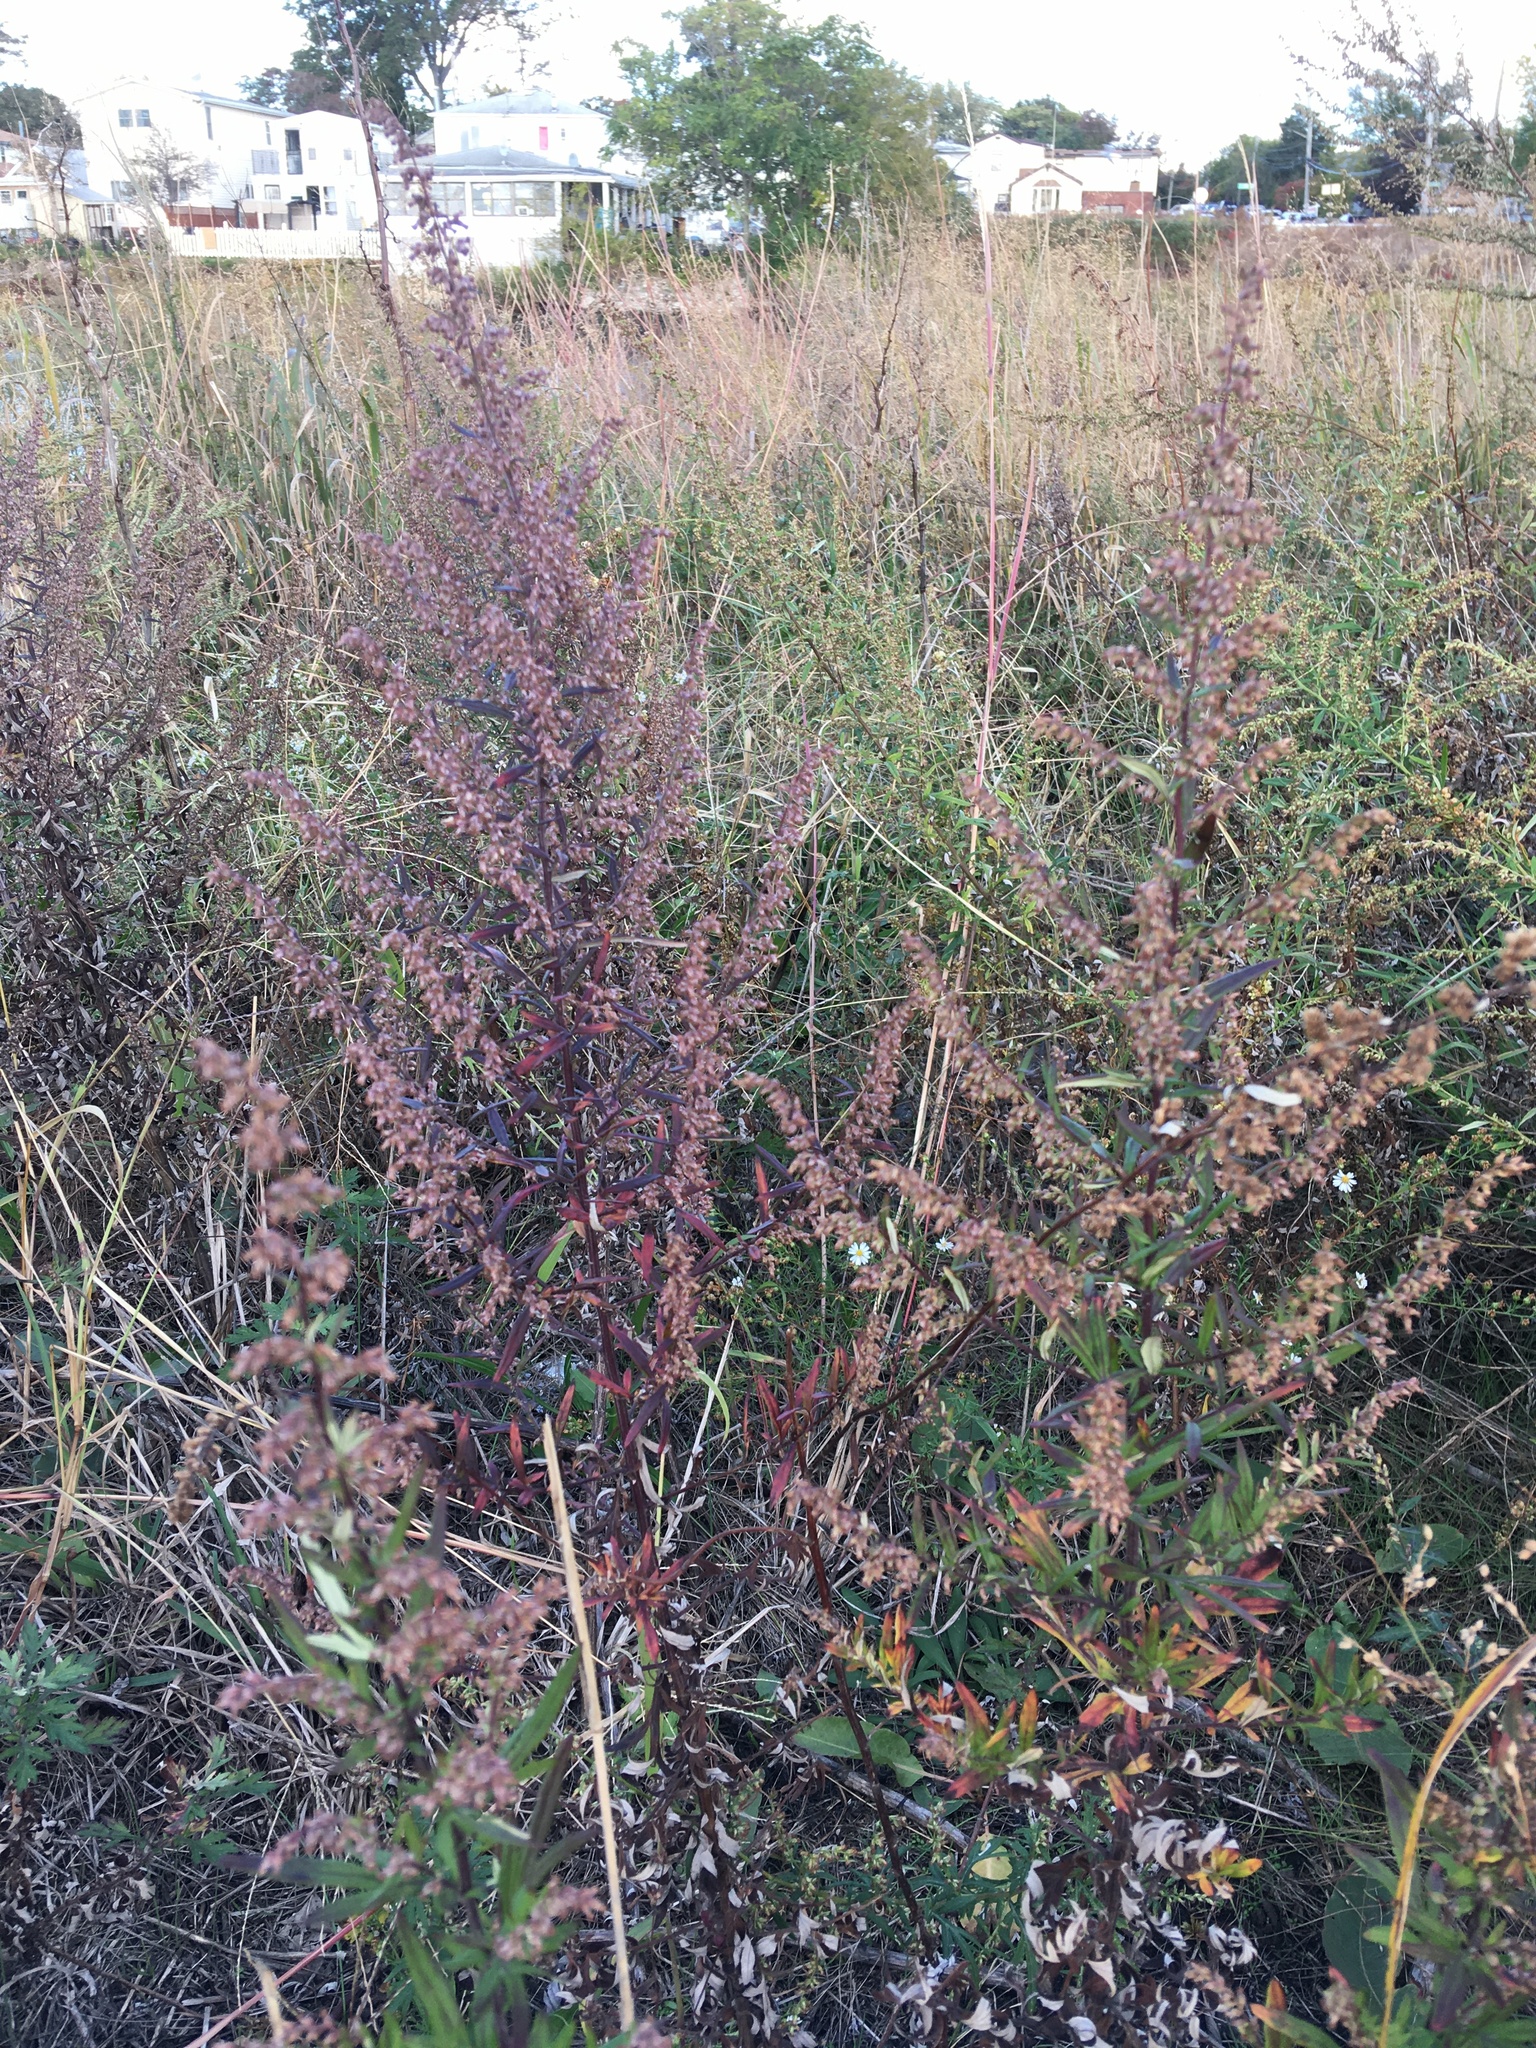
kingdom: Plantae
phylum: Tracheophyta
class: Magnoliopsida
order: Asterales
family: Asteraceae
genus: Artemisia
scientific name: Artemisia vulgaris
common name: Mugwort
